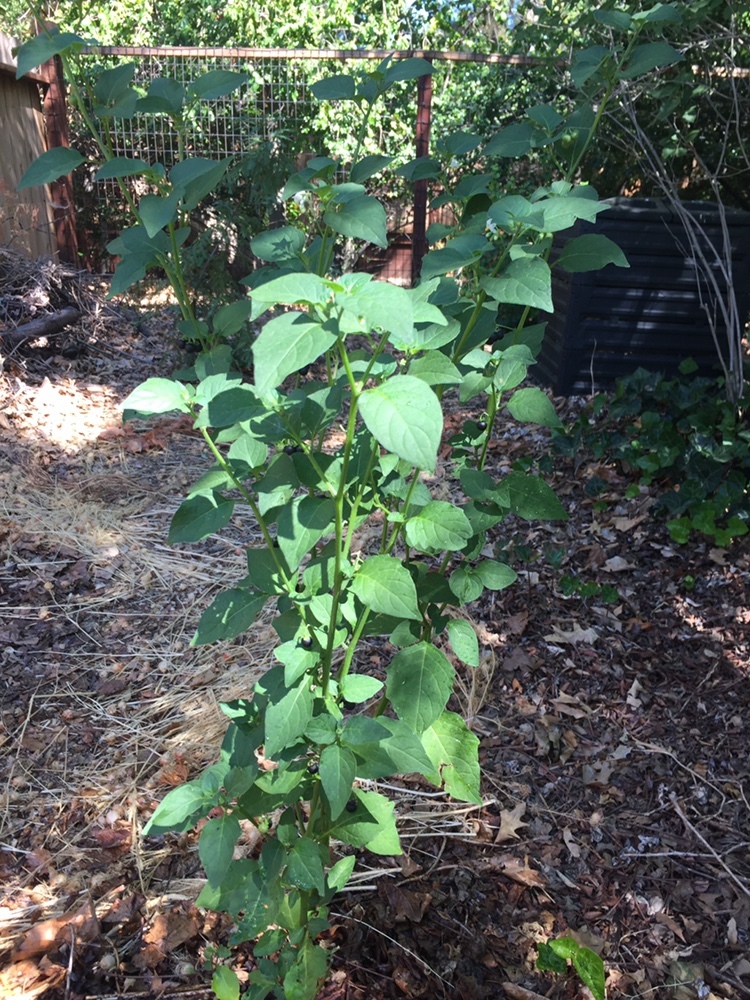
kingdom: Plantae
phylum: Tracheophyta
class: Magnoliopsida
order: Solanales
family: Solanaceae
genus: Solanum
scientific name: Solanum nigrum
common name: Black nightshade
